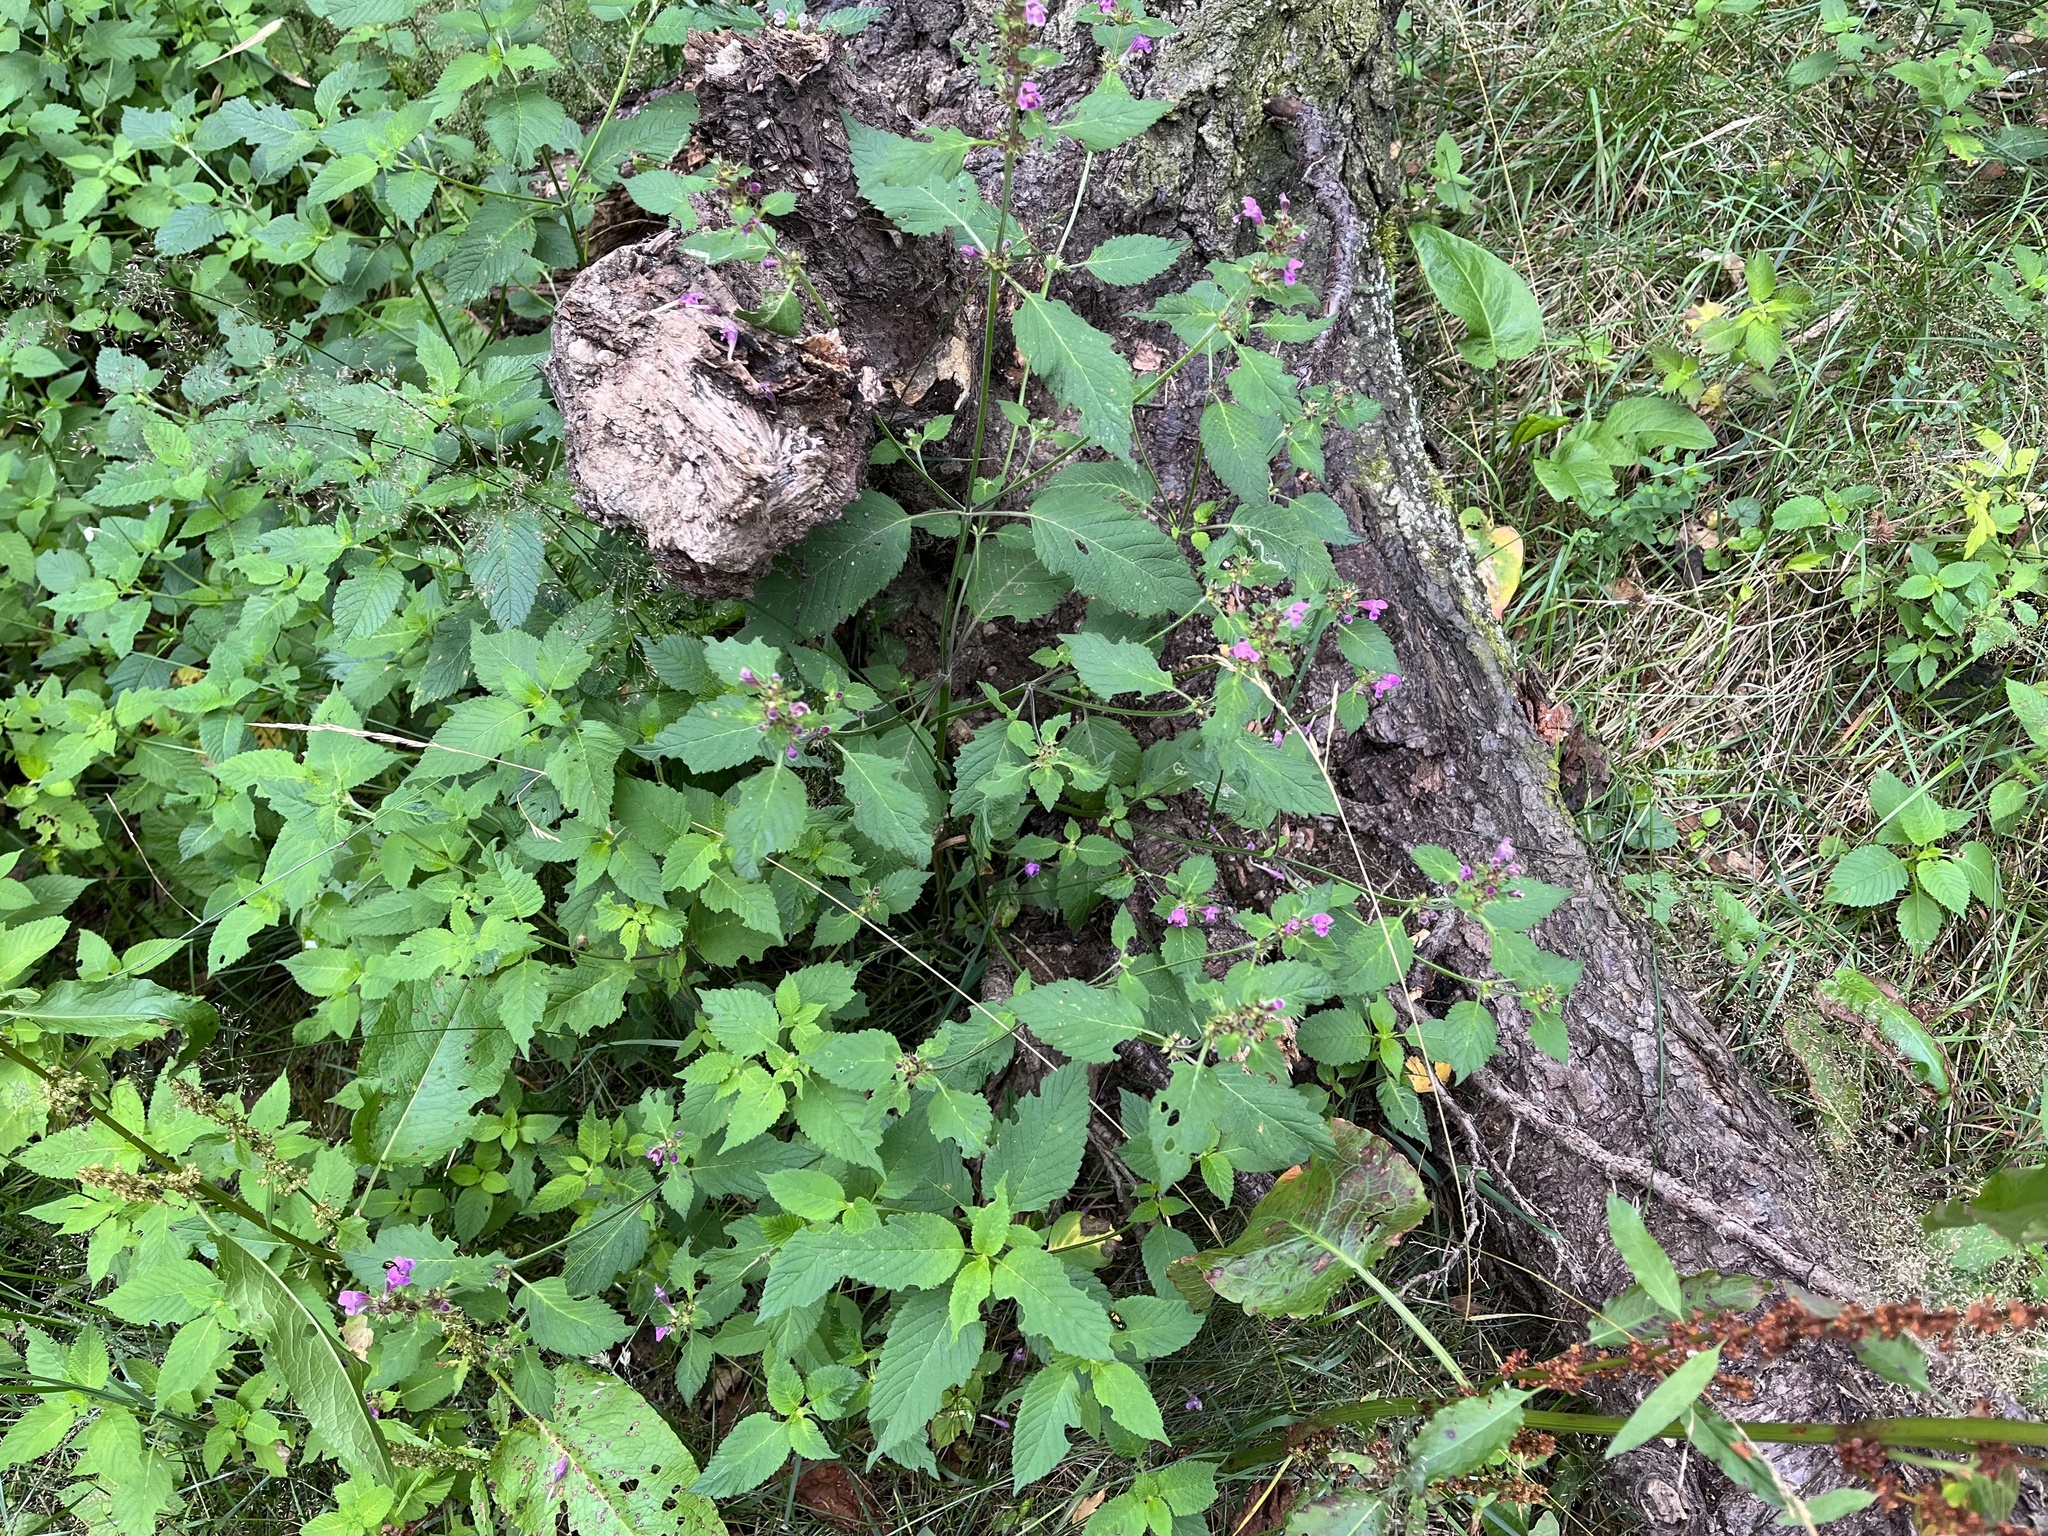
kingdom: Plantae
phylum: Tracheophyta
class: Magnoliopsida
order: Lamiales
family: Lamiaceae
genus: Galeopsis
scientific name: Galeopsis pubescens
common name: Downy hemp-nettle
